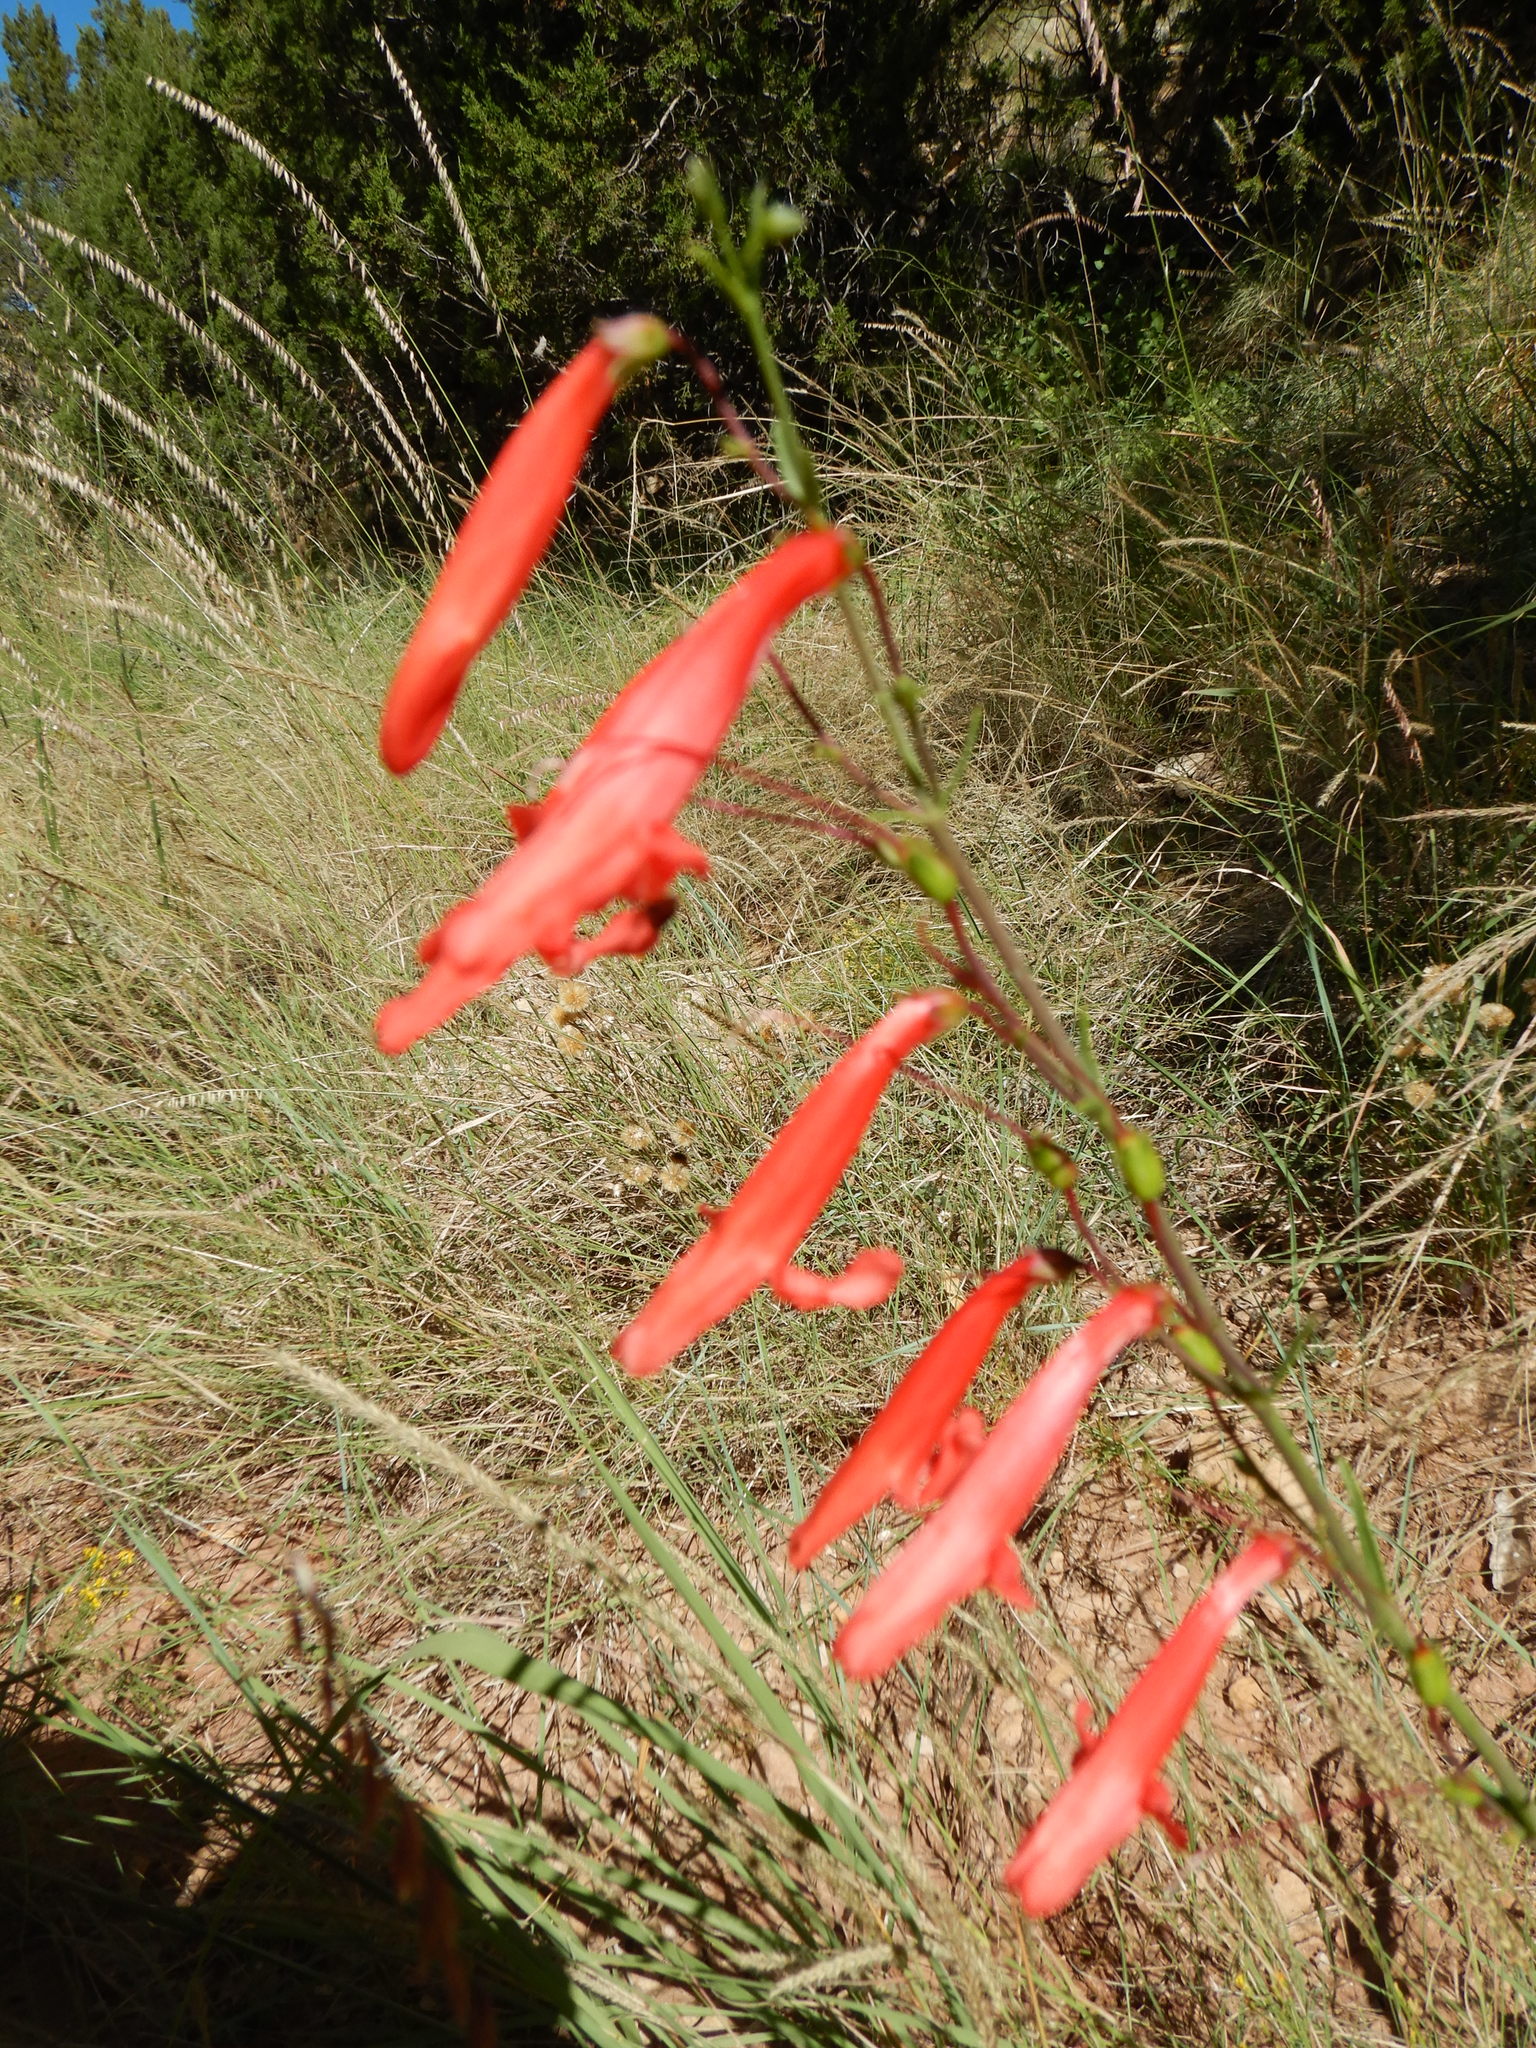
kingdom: Plantae
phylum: Tracheophyta
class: Magnoliopsida
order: Lamiales
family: Plantaginaceae
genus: Penstemon
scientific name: Penstemon barbatus
